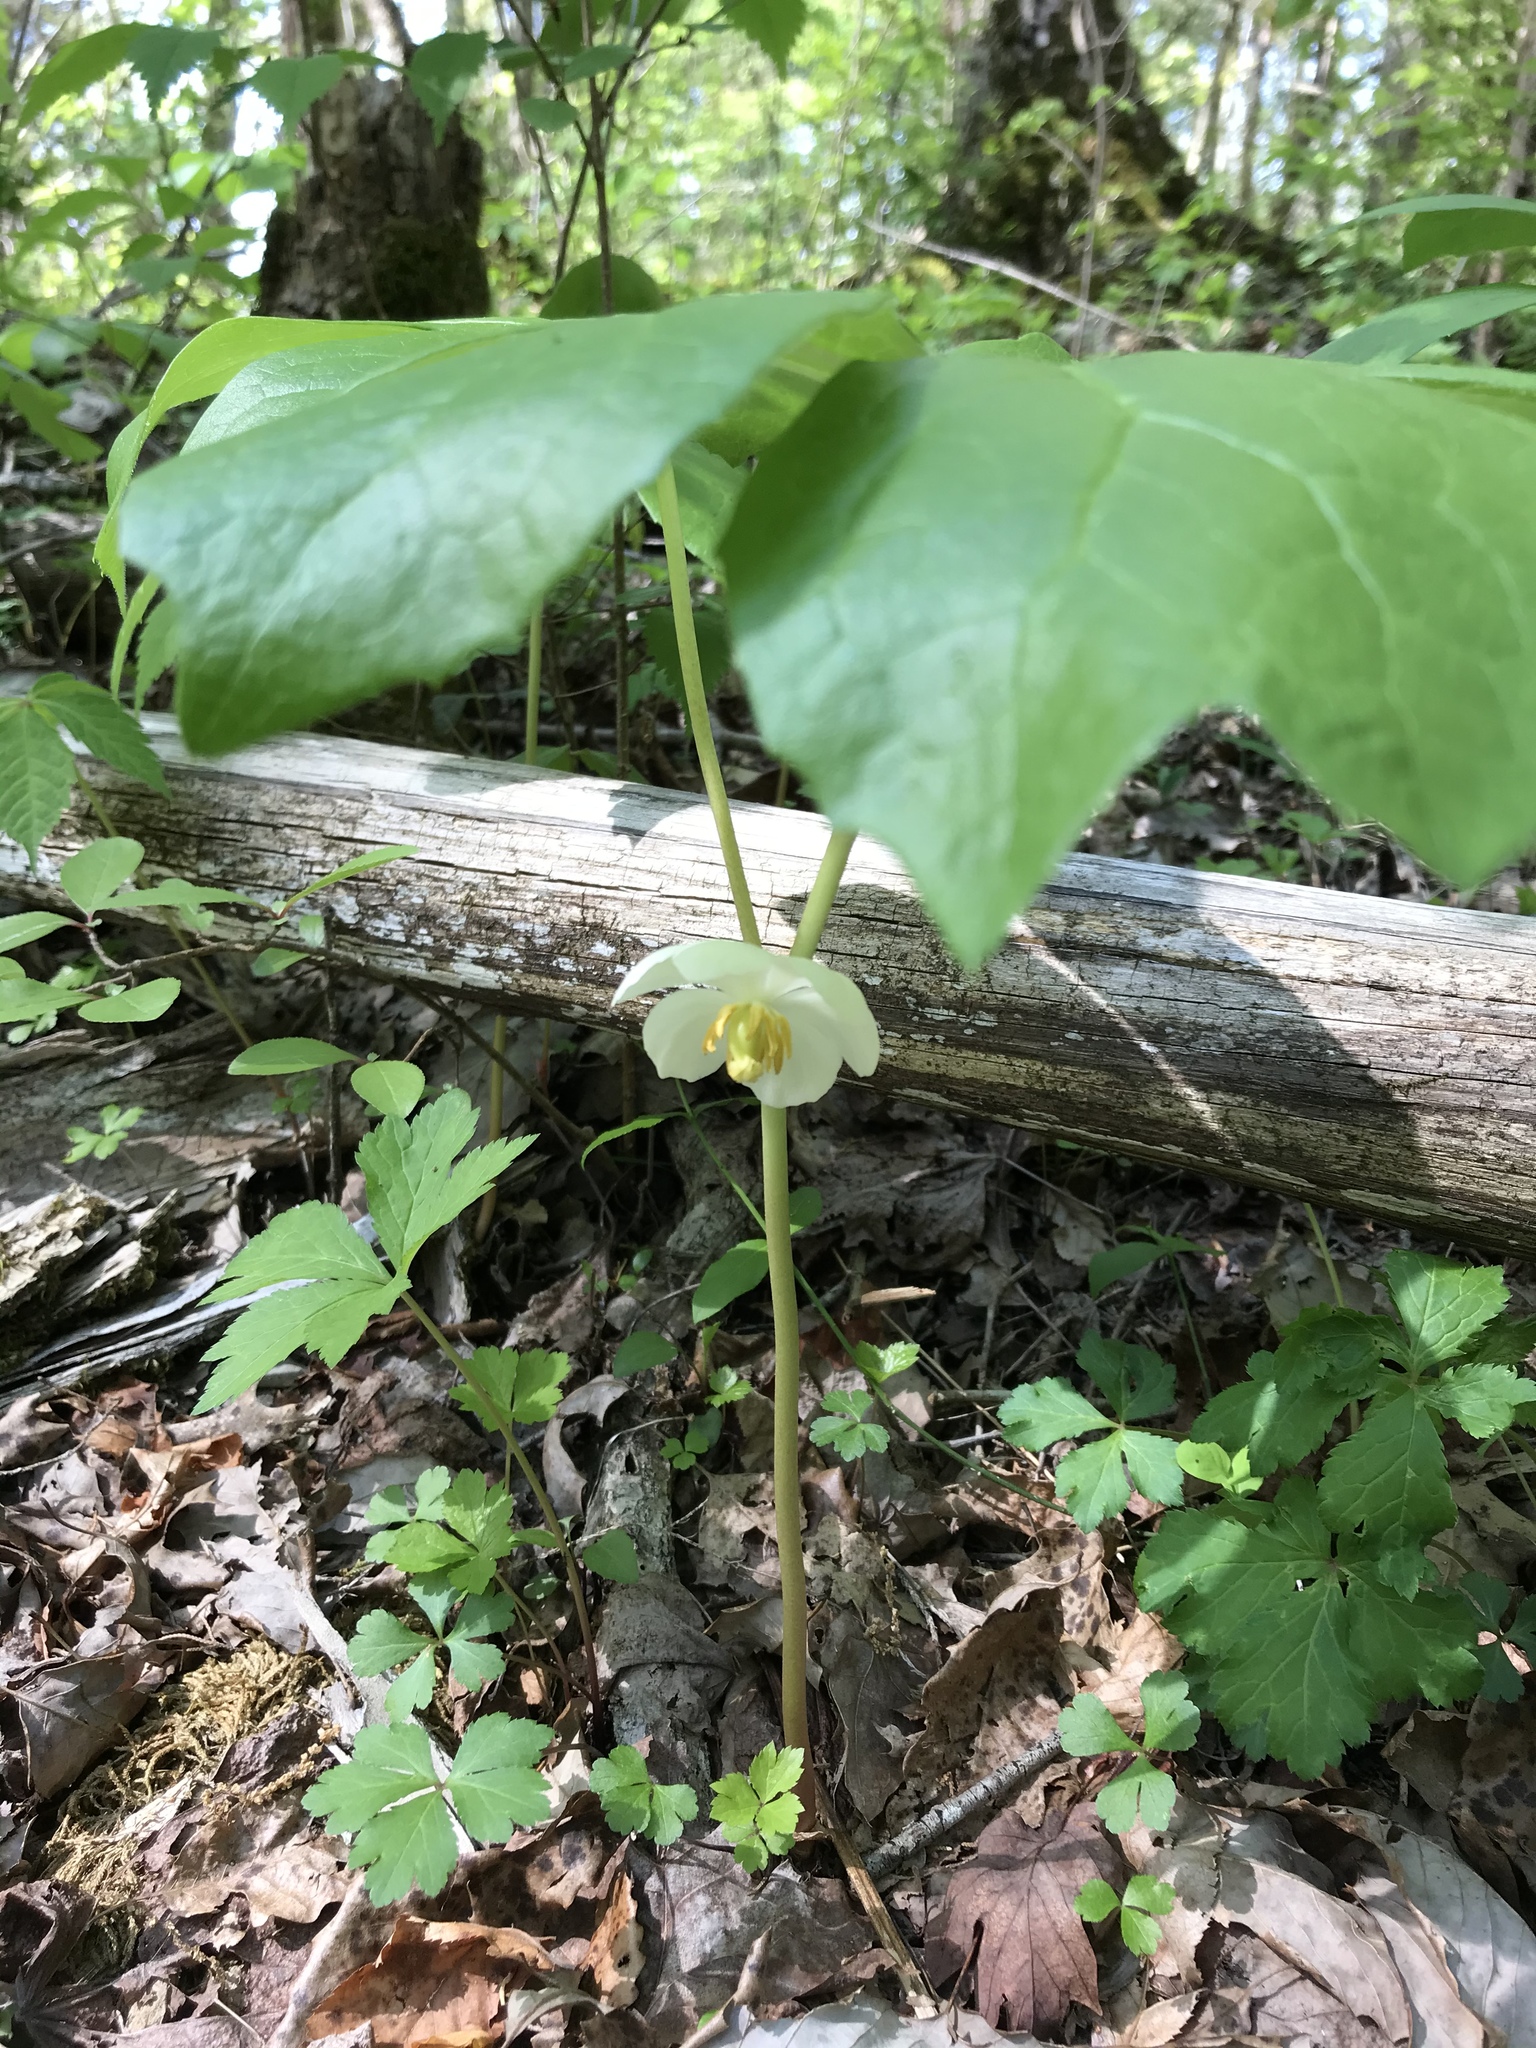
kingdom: Plantae
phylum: Tracheophyta
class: Magnoliopsida
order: Ranunculales
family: Berberidaceae
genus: Podophyllum
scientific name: Podophyllum peltatum
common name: Wild mandrake
